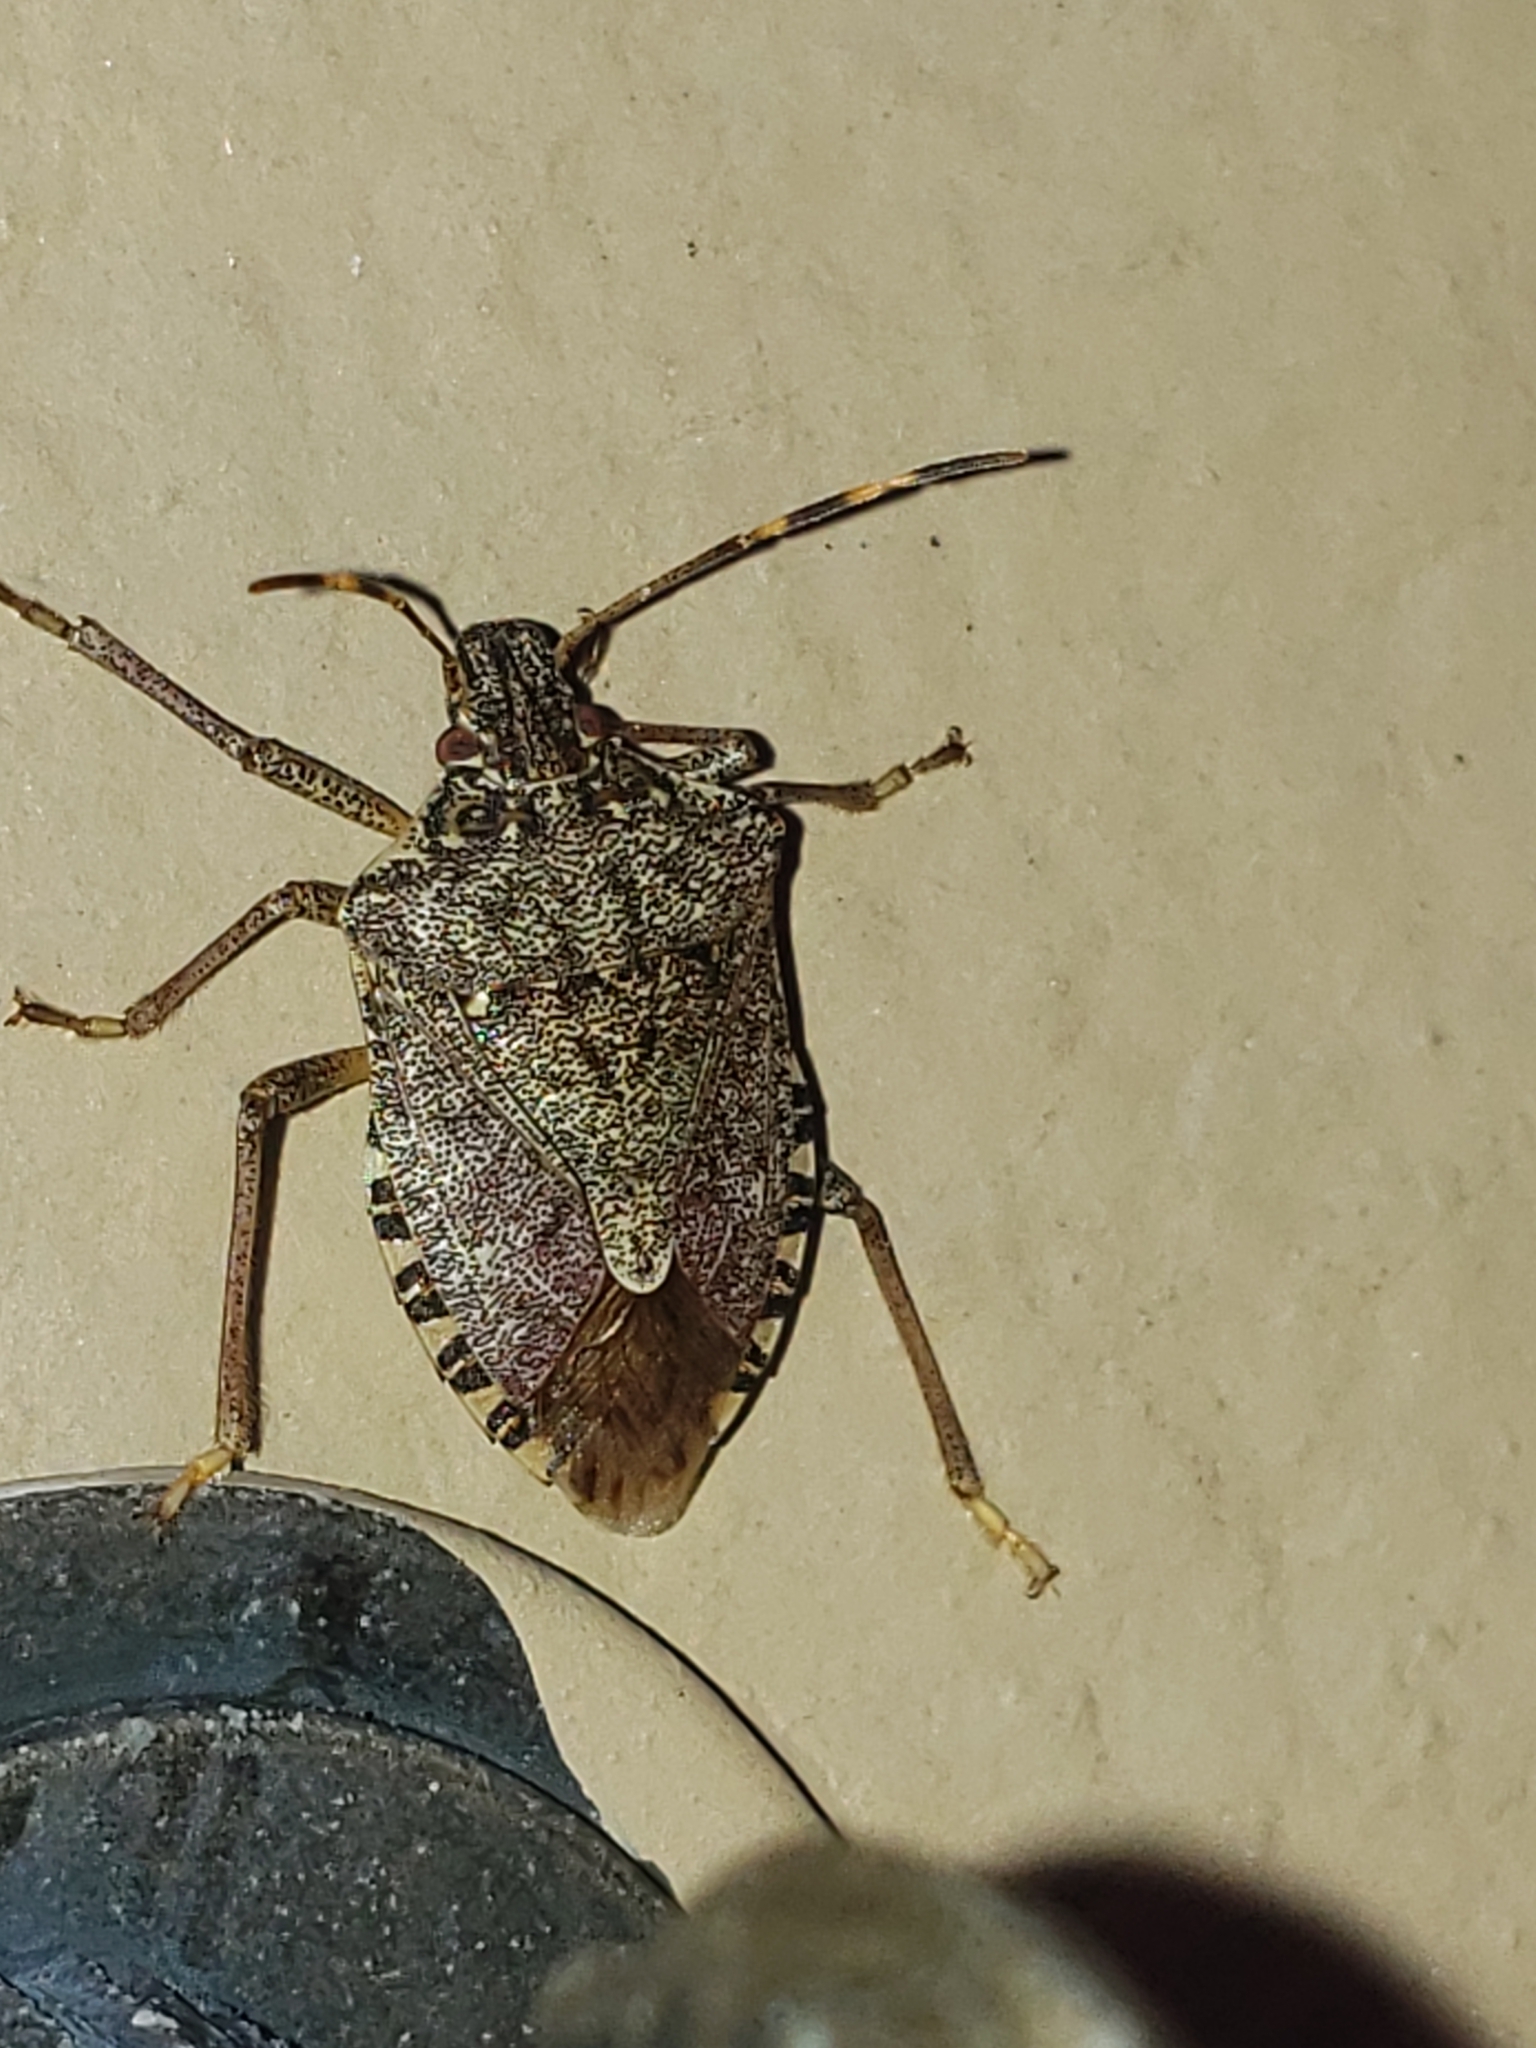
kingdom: Animalia
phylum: Arthropoda
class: Insecta
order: Hemiptera
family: Pentatomidae
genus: Halyomorpha
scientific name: Halyomorpha halys
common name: Brown marmorated stink bug
